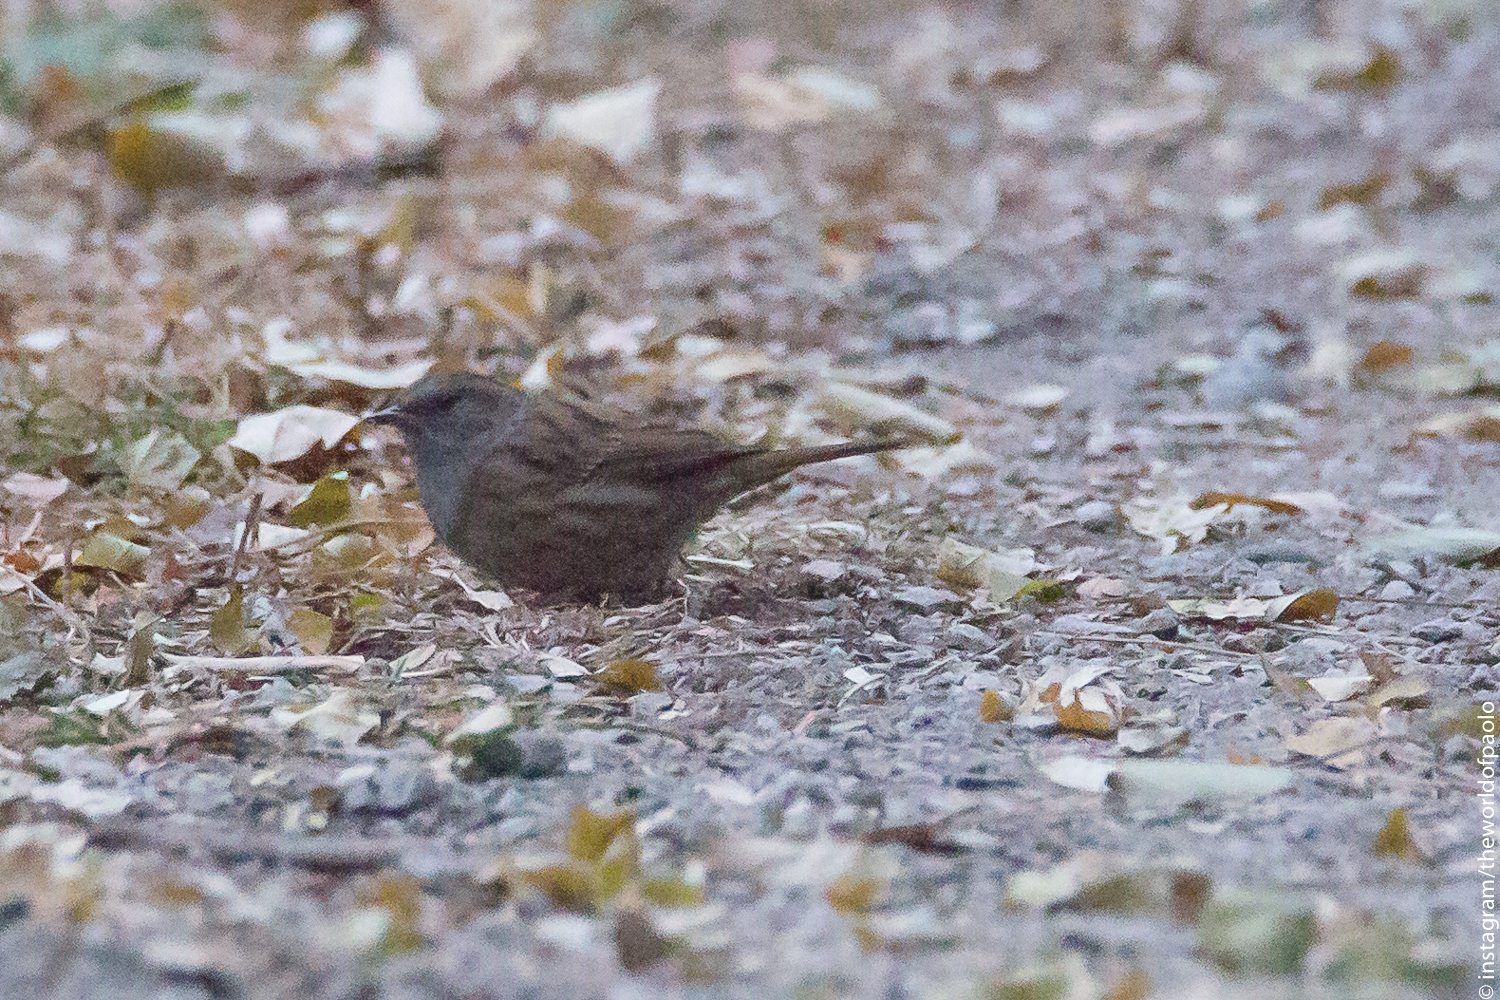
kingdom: Animalia
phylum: Chordata
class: Aves
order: Passeriformes
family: Prunellidae
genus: Prunella
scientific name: Prunella modularis
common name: Dunnock
